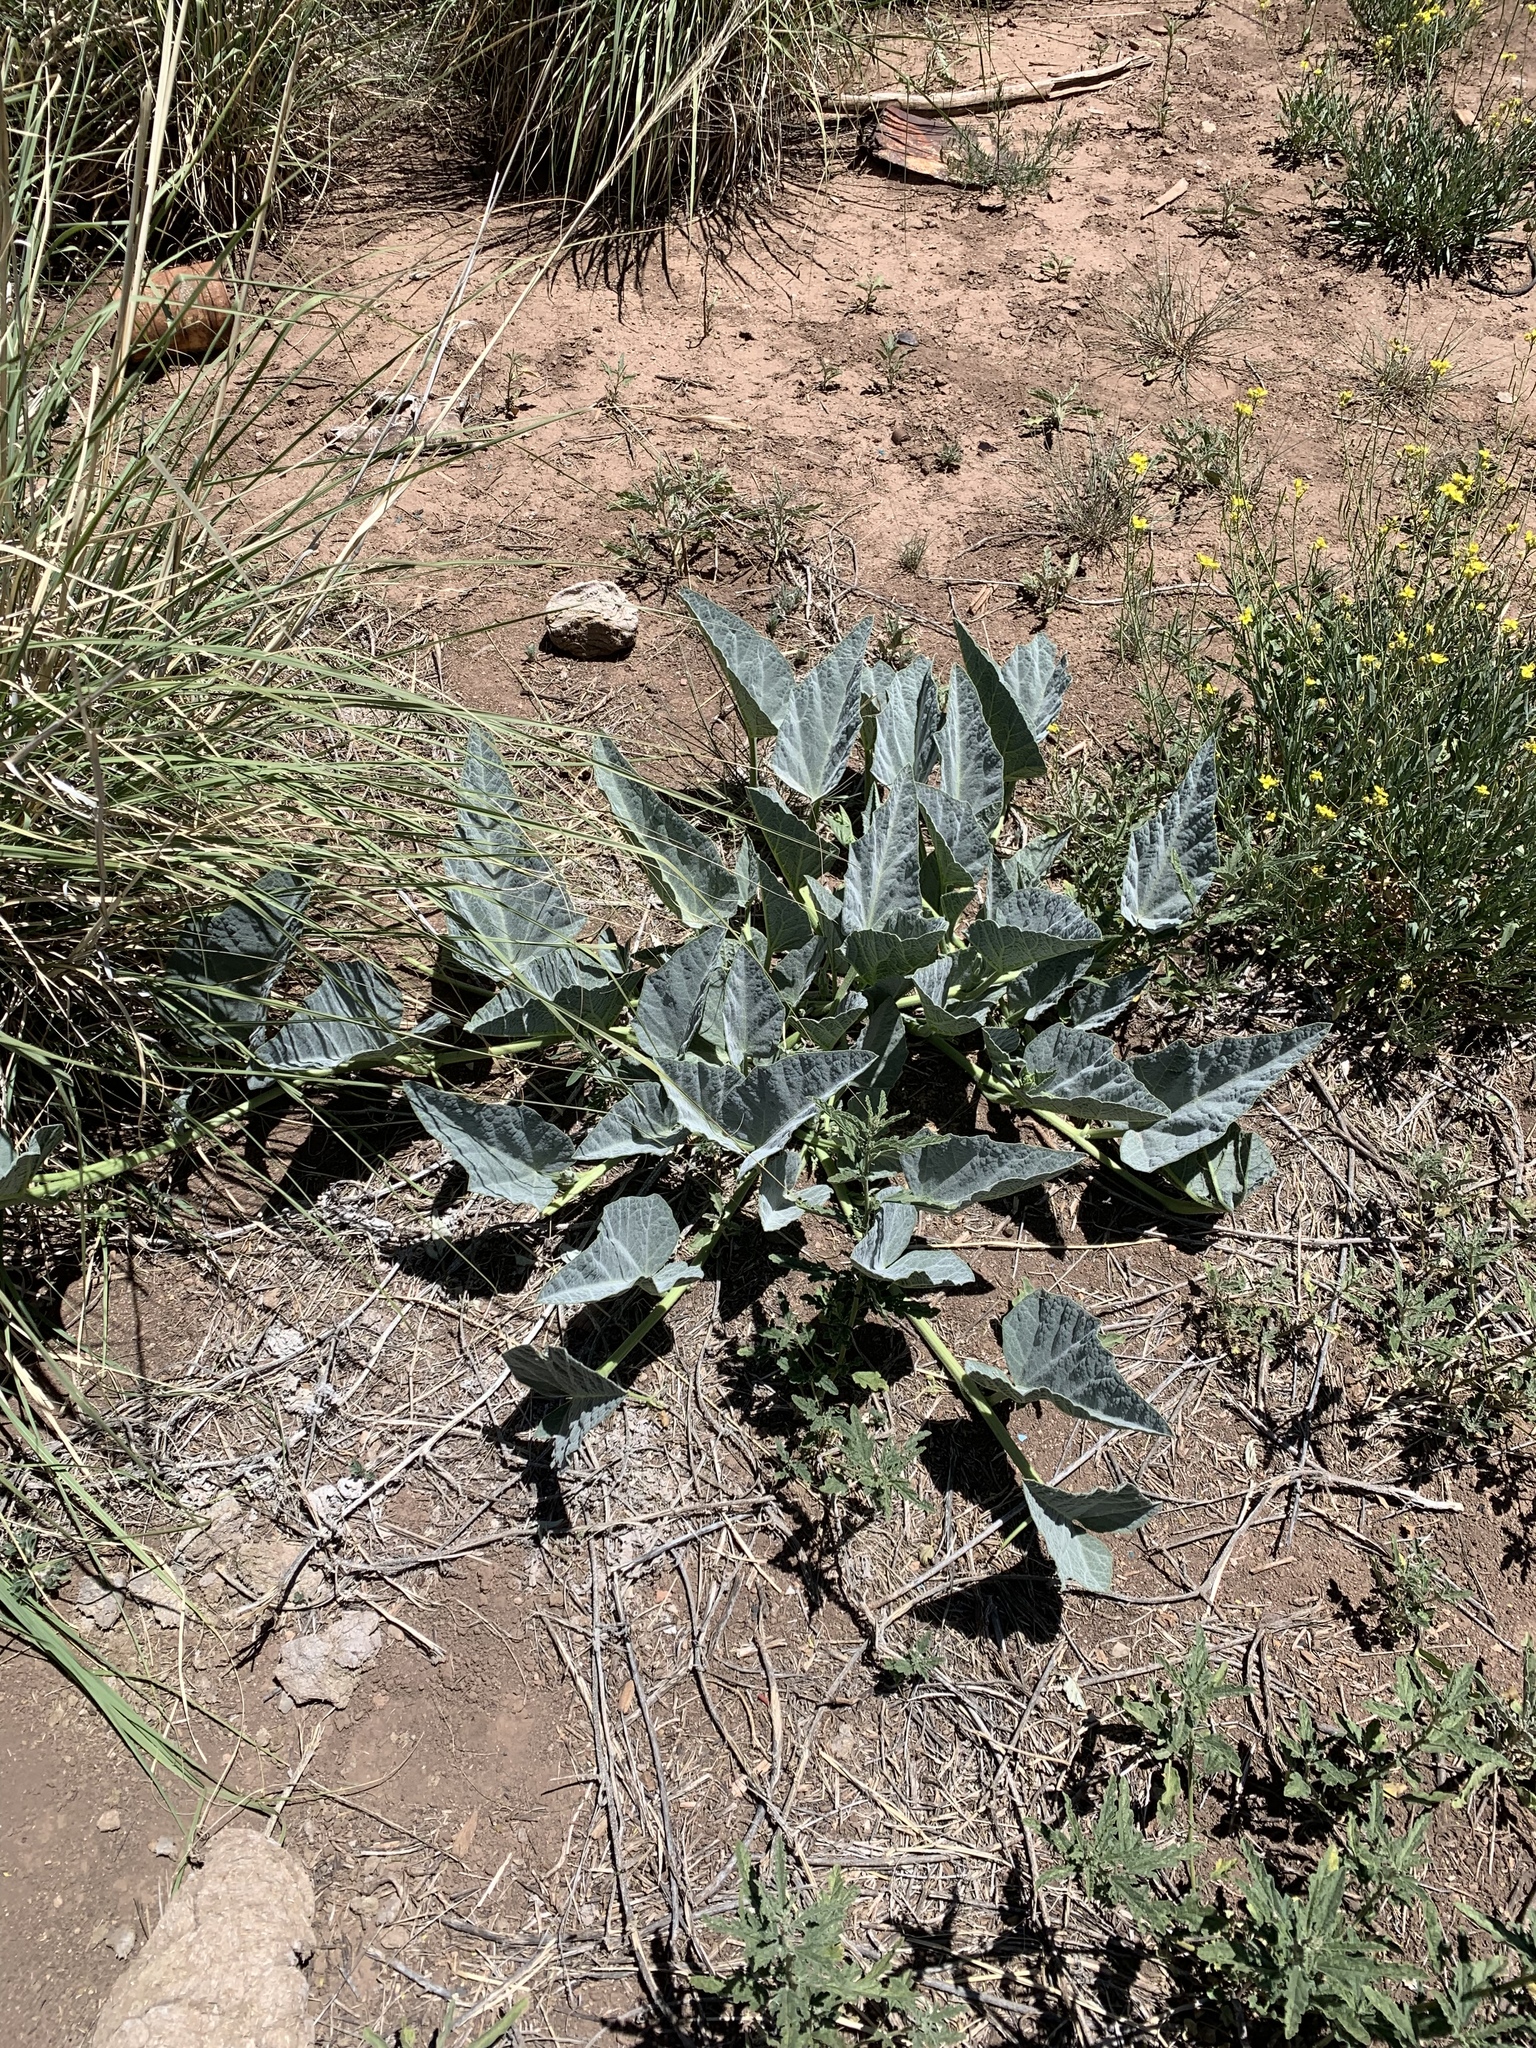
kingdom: Plantae
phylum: Tracheophyta
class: Magnoliopsida
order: Cucurbitales
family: Cucurbitaceae
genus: Cucurbita
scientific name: Cucurbita foetidissima
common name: Buffalo gourd
